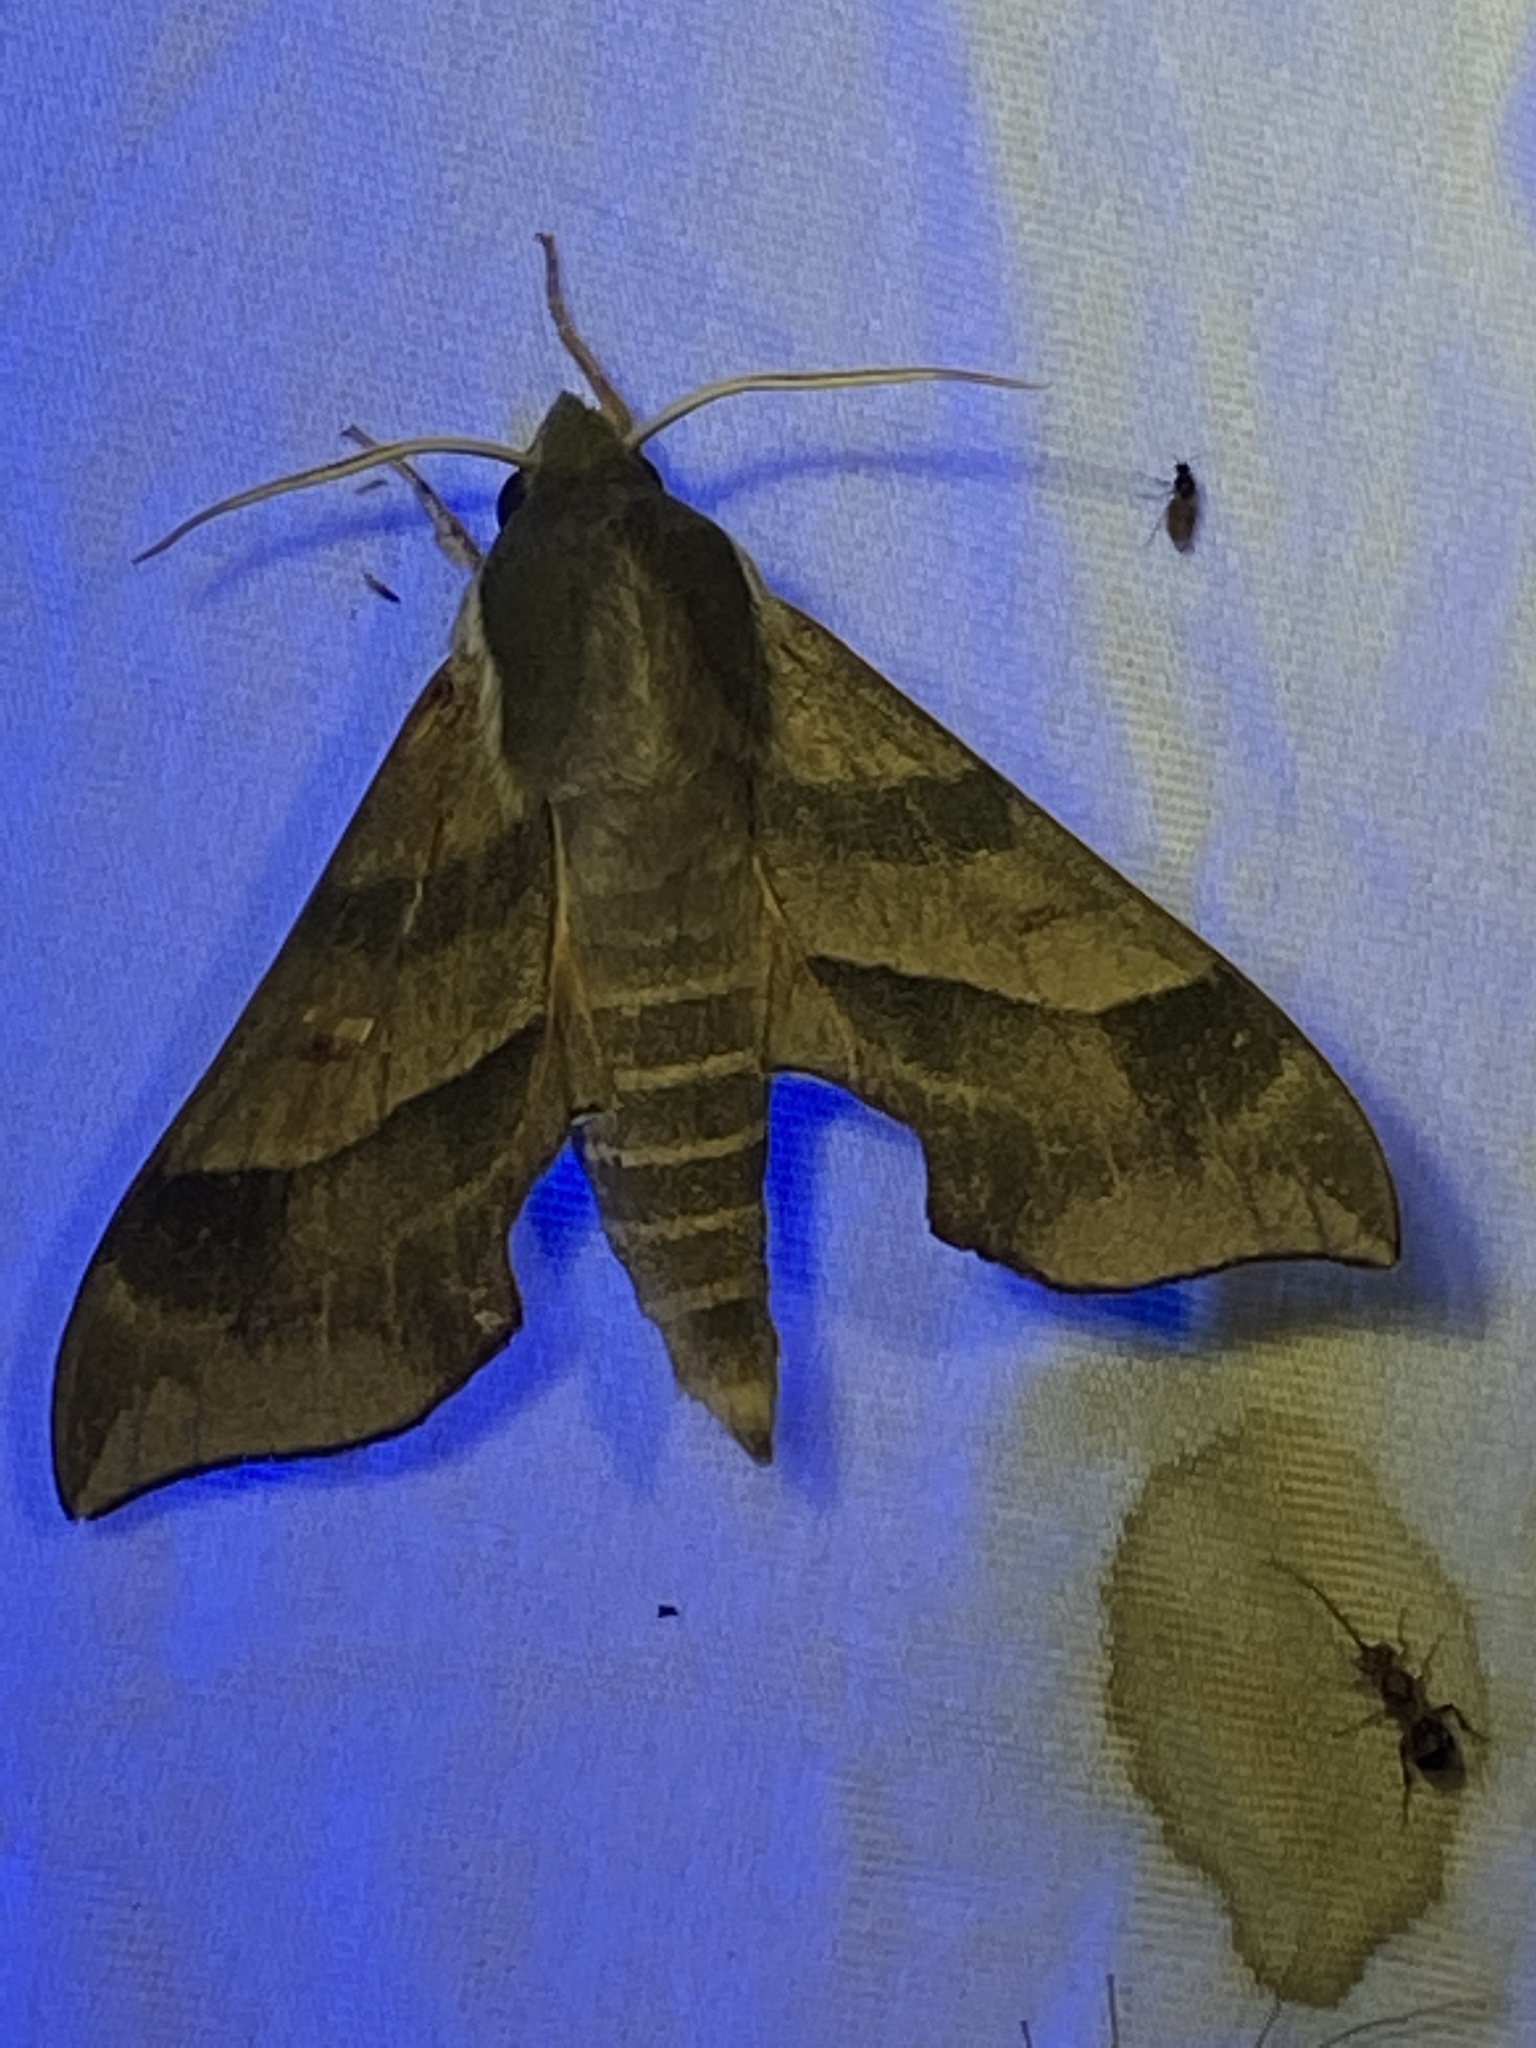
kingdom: Animalia
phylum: Arthropoda
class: Insecta
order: Lepidoptera
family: Sphingidae
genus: Darapsa
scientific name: Darapsa myron
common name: Hog sphinx
